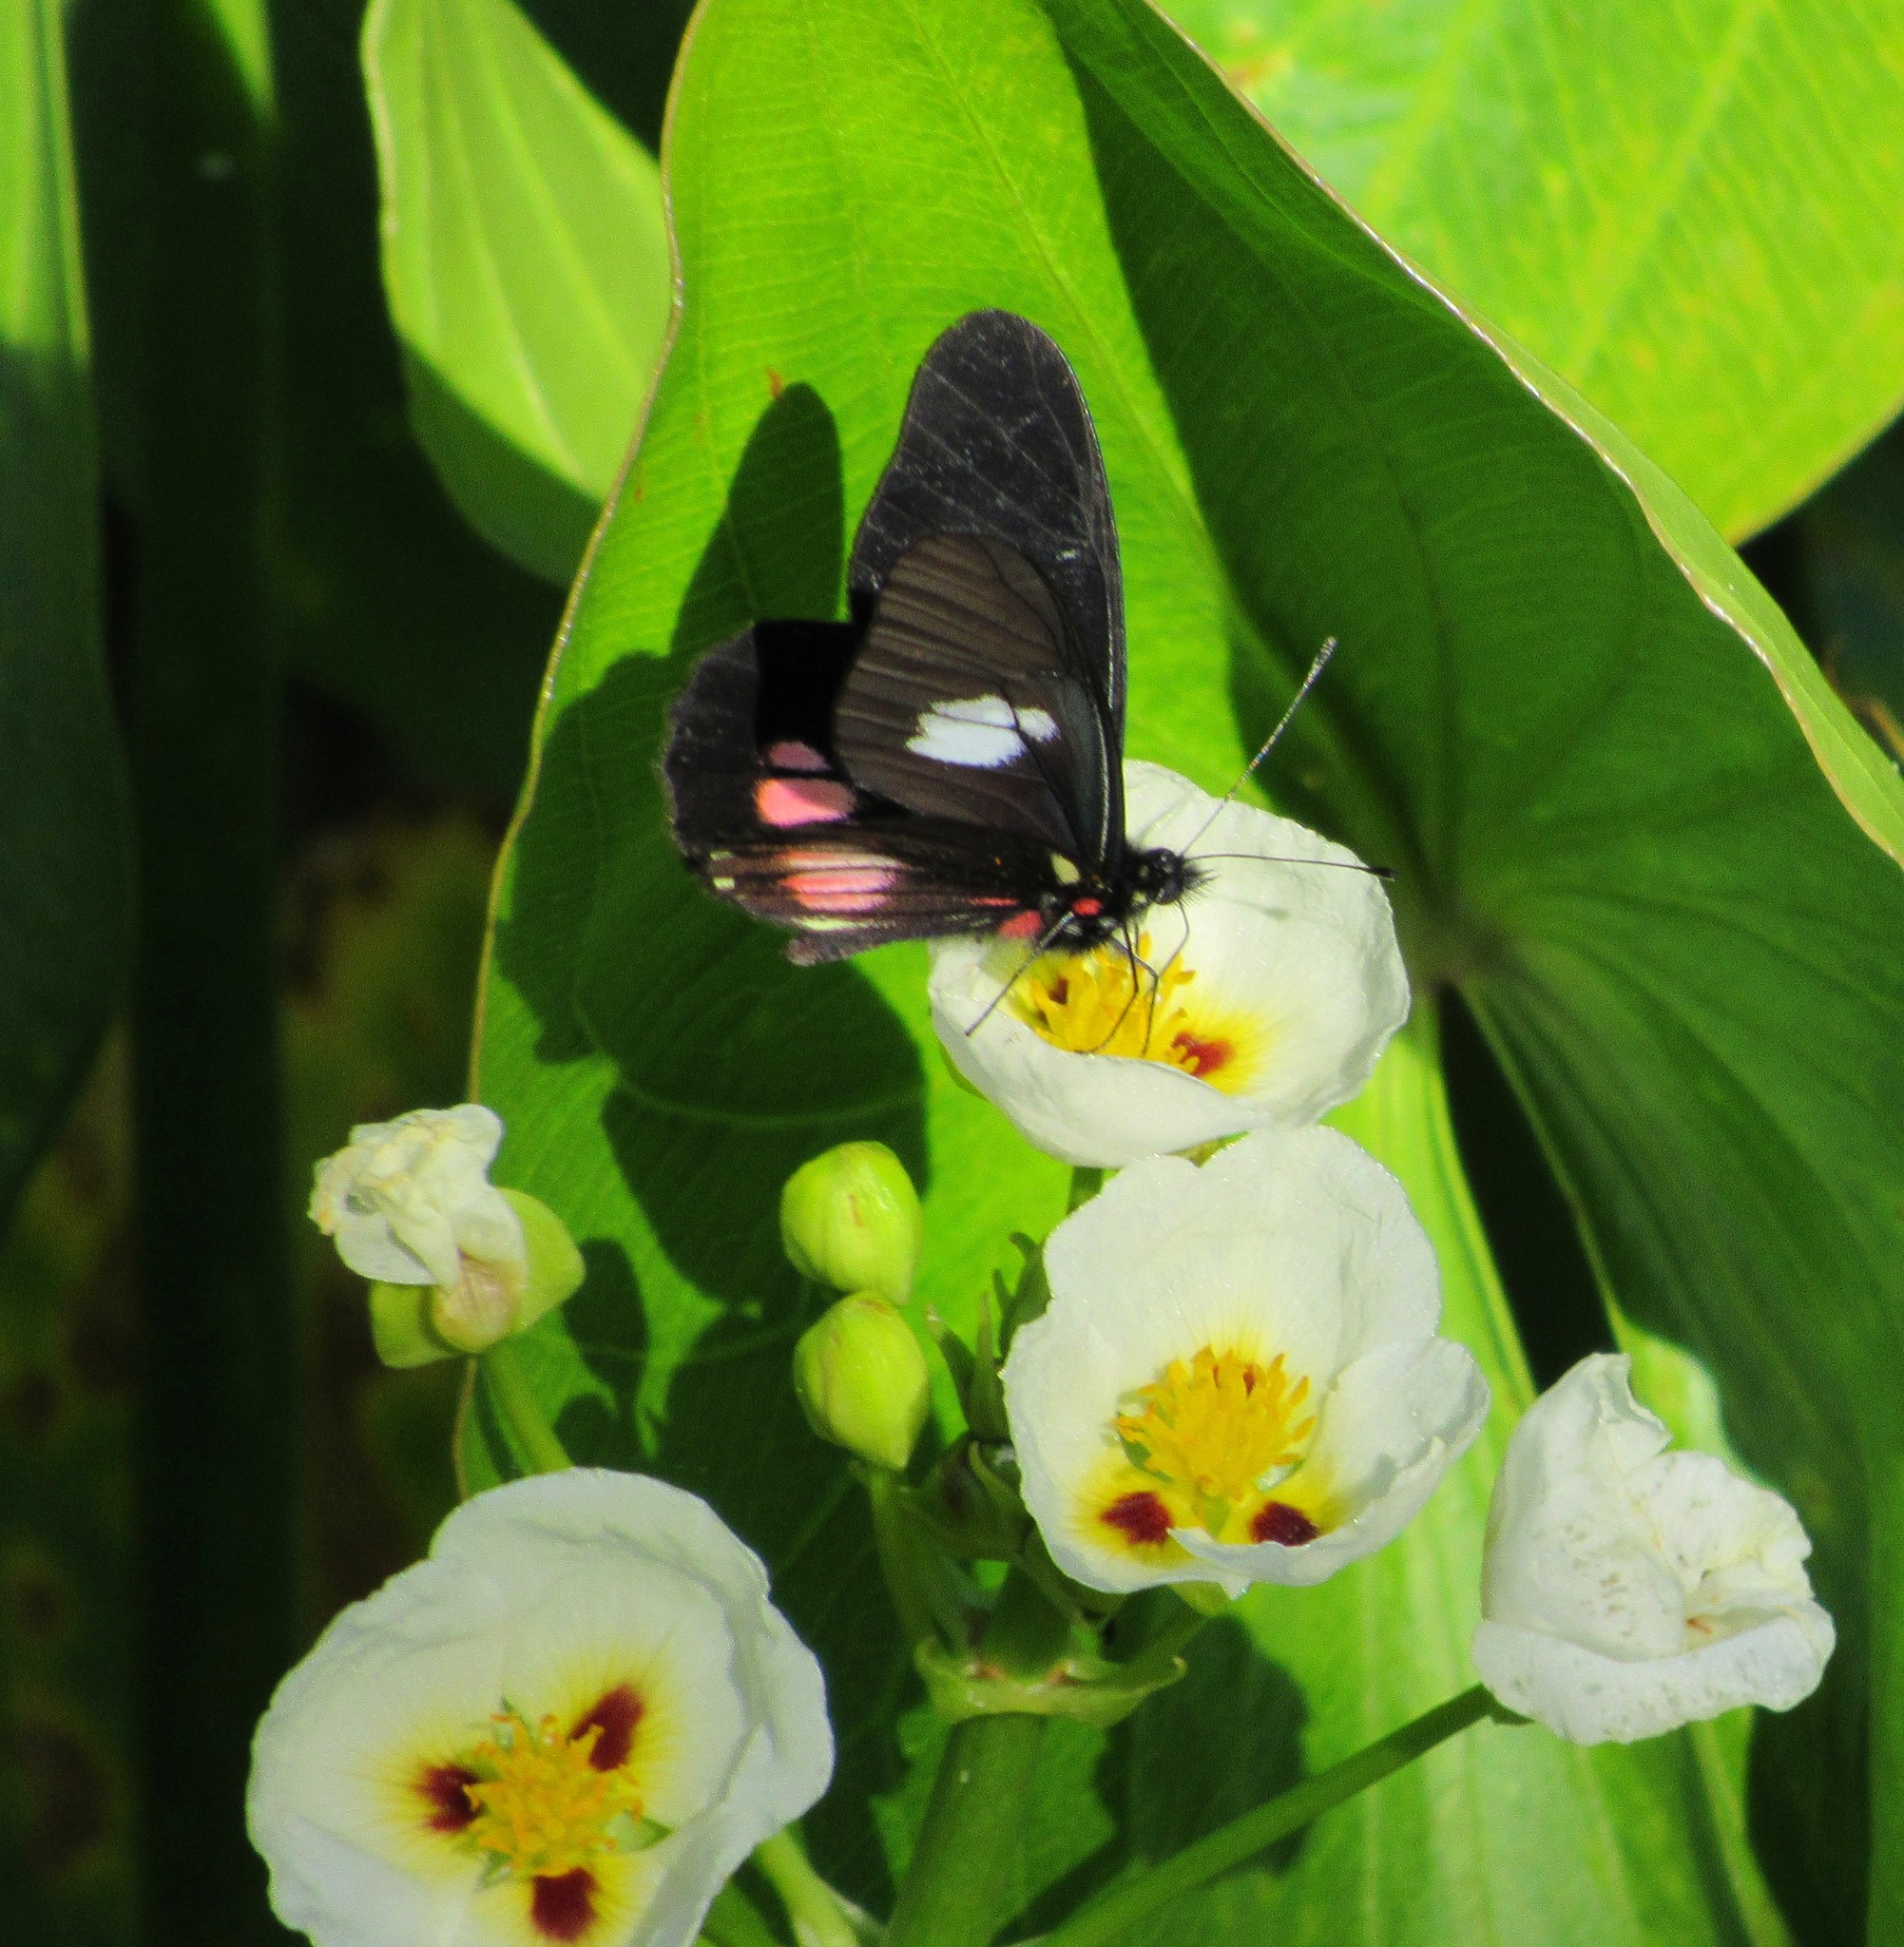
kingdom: Animalia
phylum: Arthropoda
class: Insecta
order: Lepidoptera
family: Pieridae
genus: Archonias
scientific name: Archonias brassolis
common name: Cattleheart white
